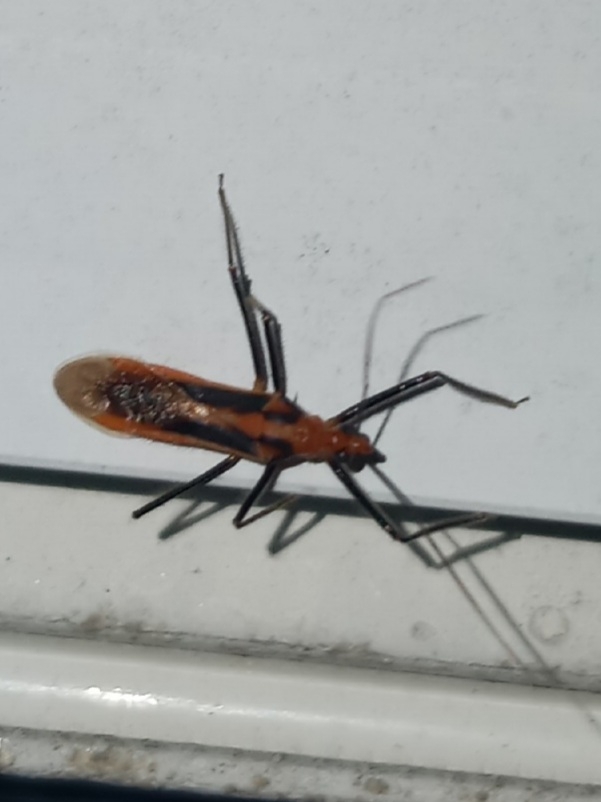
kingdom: Animalia
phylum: Arthropoda
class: Insecta
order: Hemiptera
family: Reduviidae
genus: Repipta
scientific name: Repipta taurus
